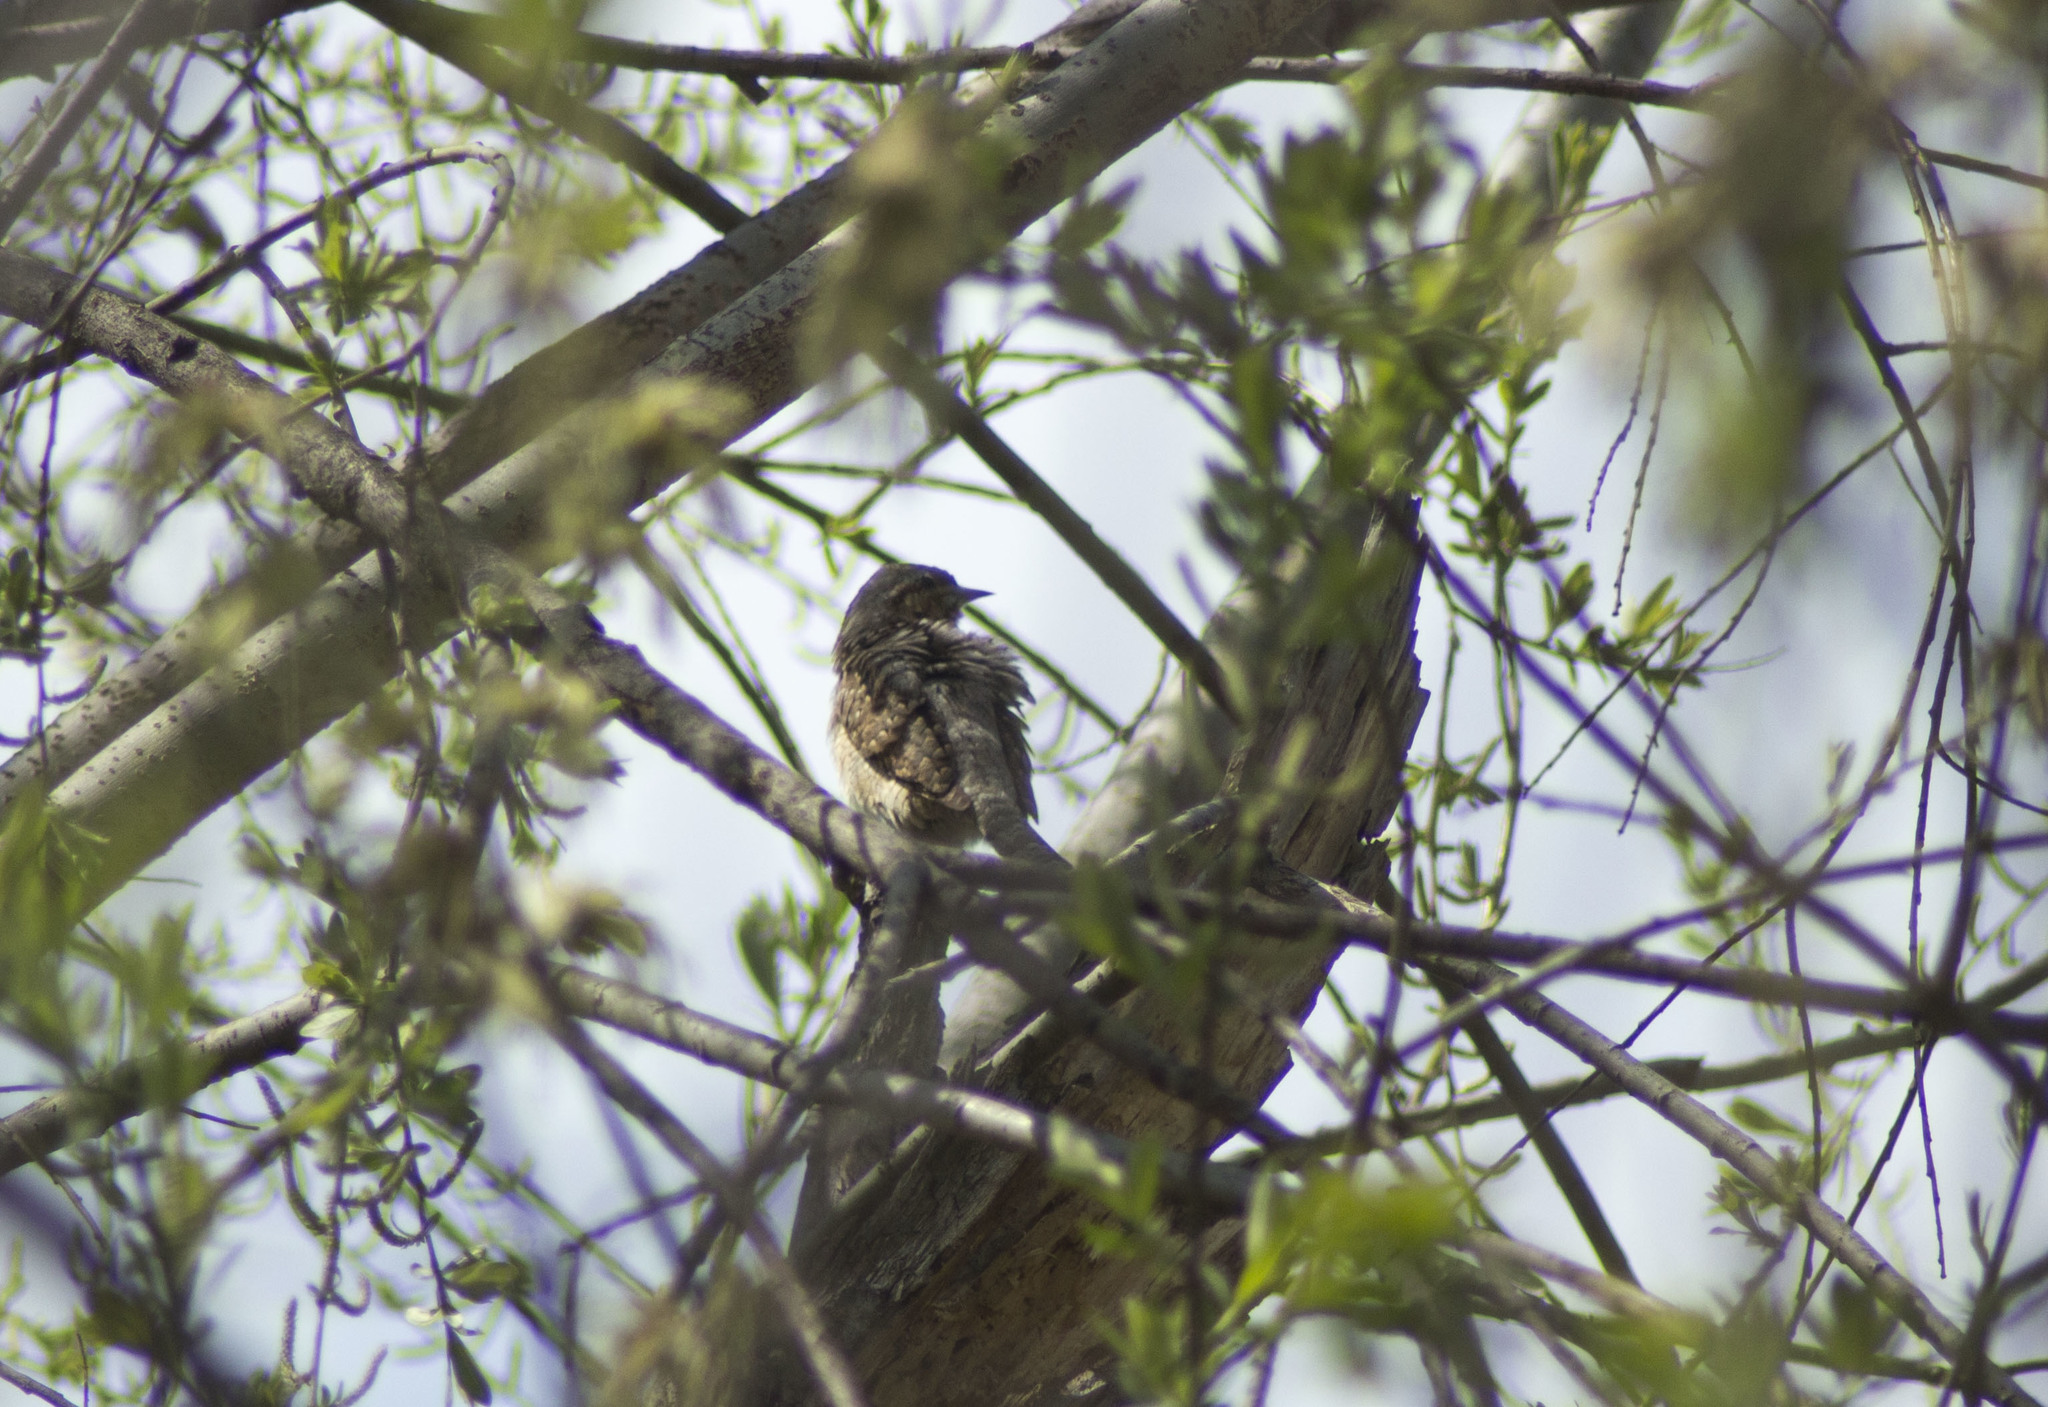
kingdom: Animalia
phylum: Chordata
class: Aves
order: Piciformes
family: Picidae
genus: Jynx
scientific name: Jynx torquilla
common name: Eurasian wryneck
